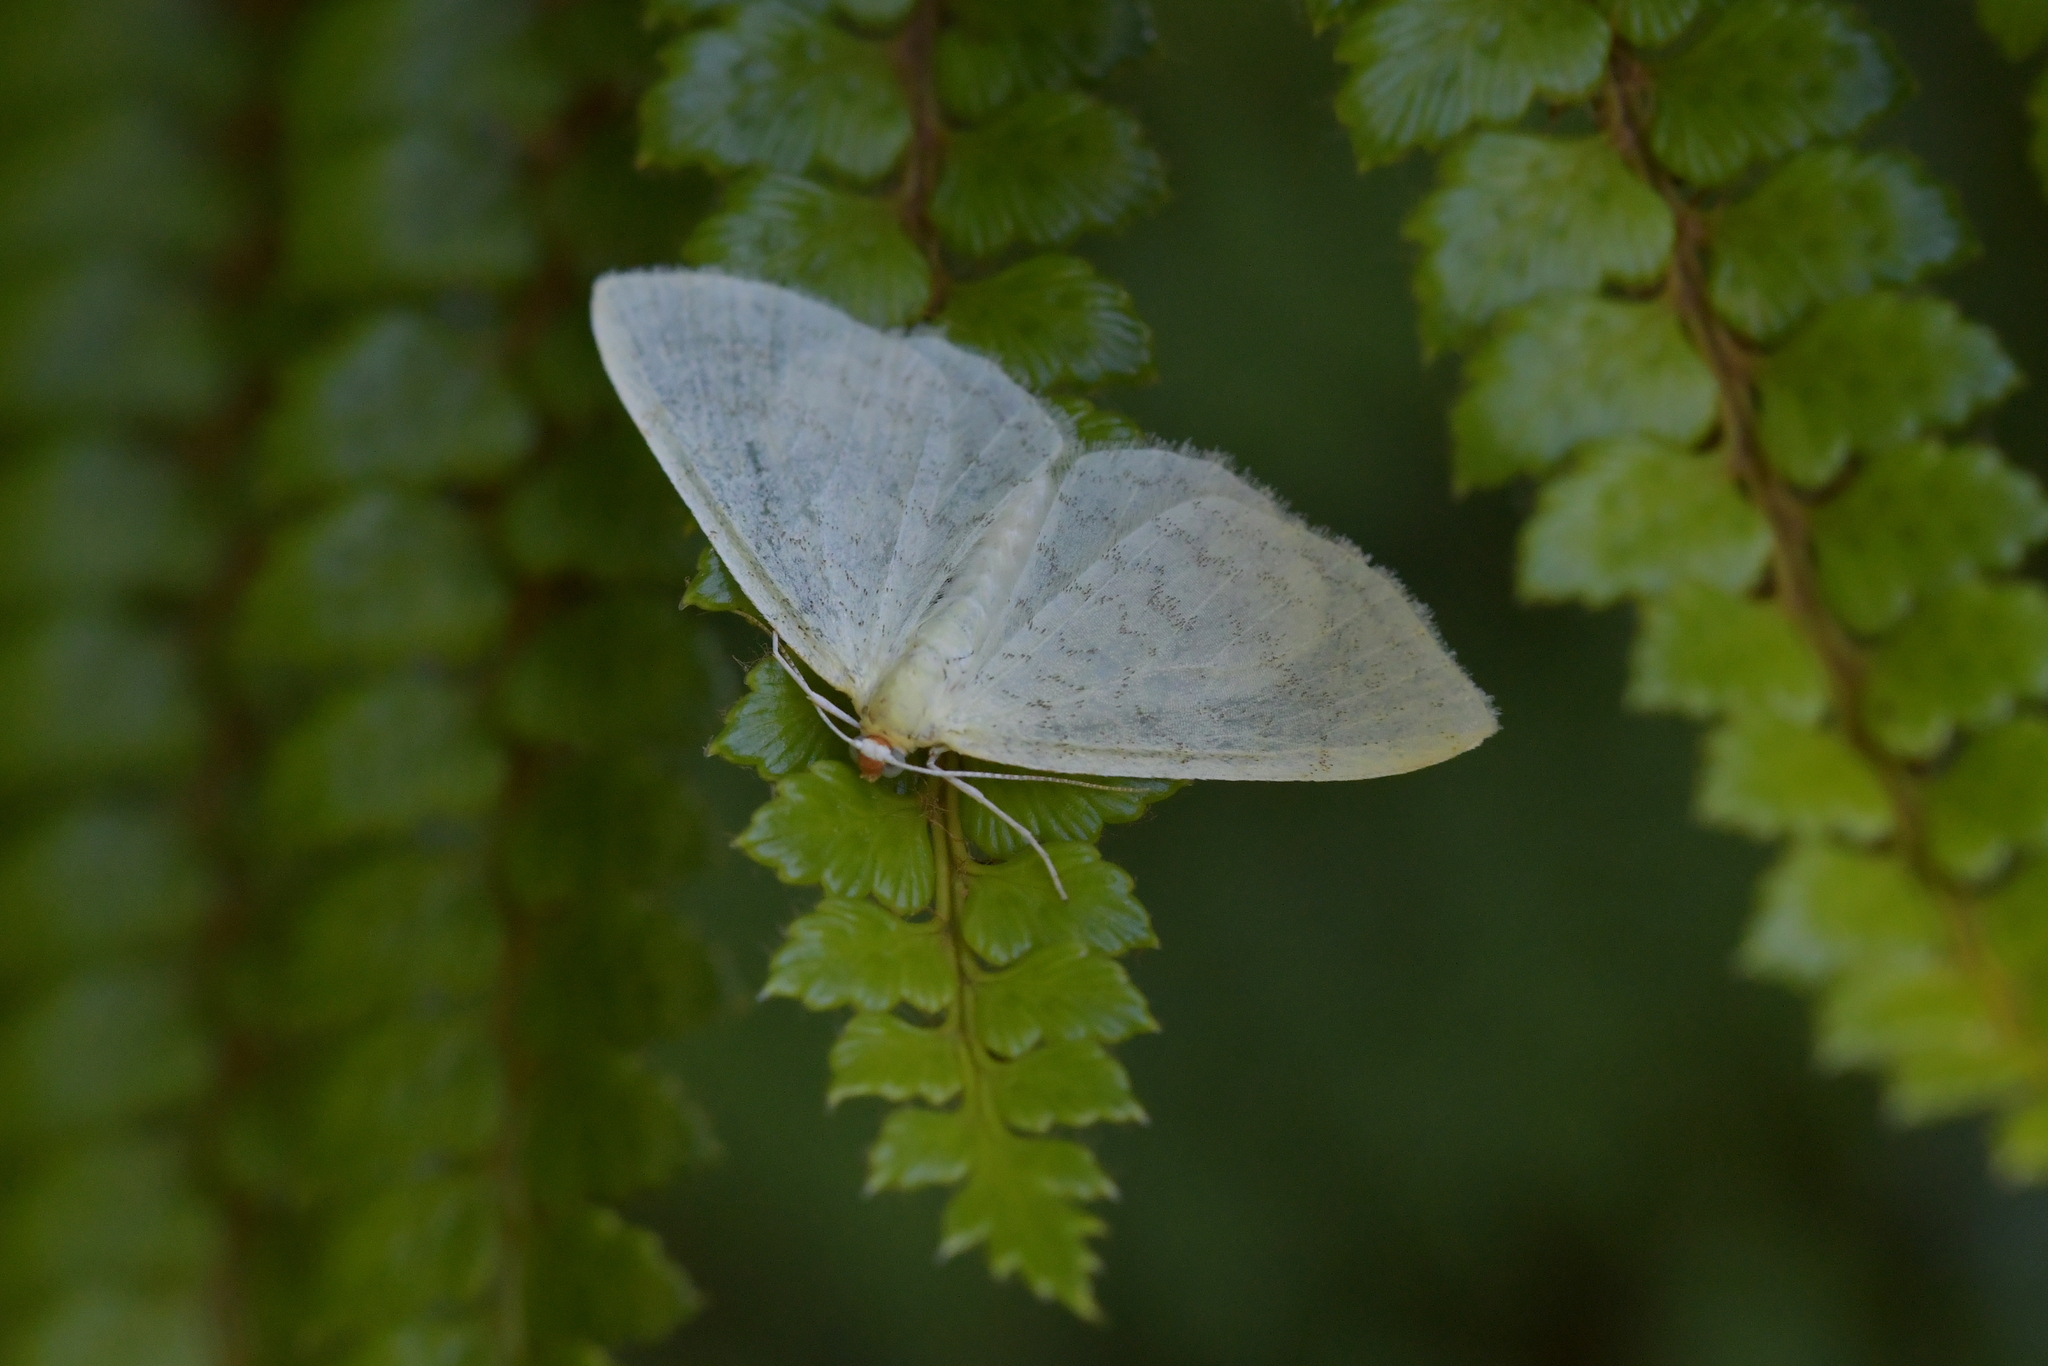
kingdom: Animalia
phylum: Arthropoda
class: Insecta
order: Lepidoptera
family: Geometridae
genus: Epiphryne
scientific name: Epiphryne undosata
